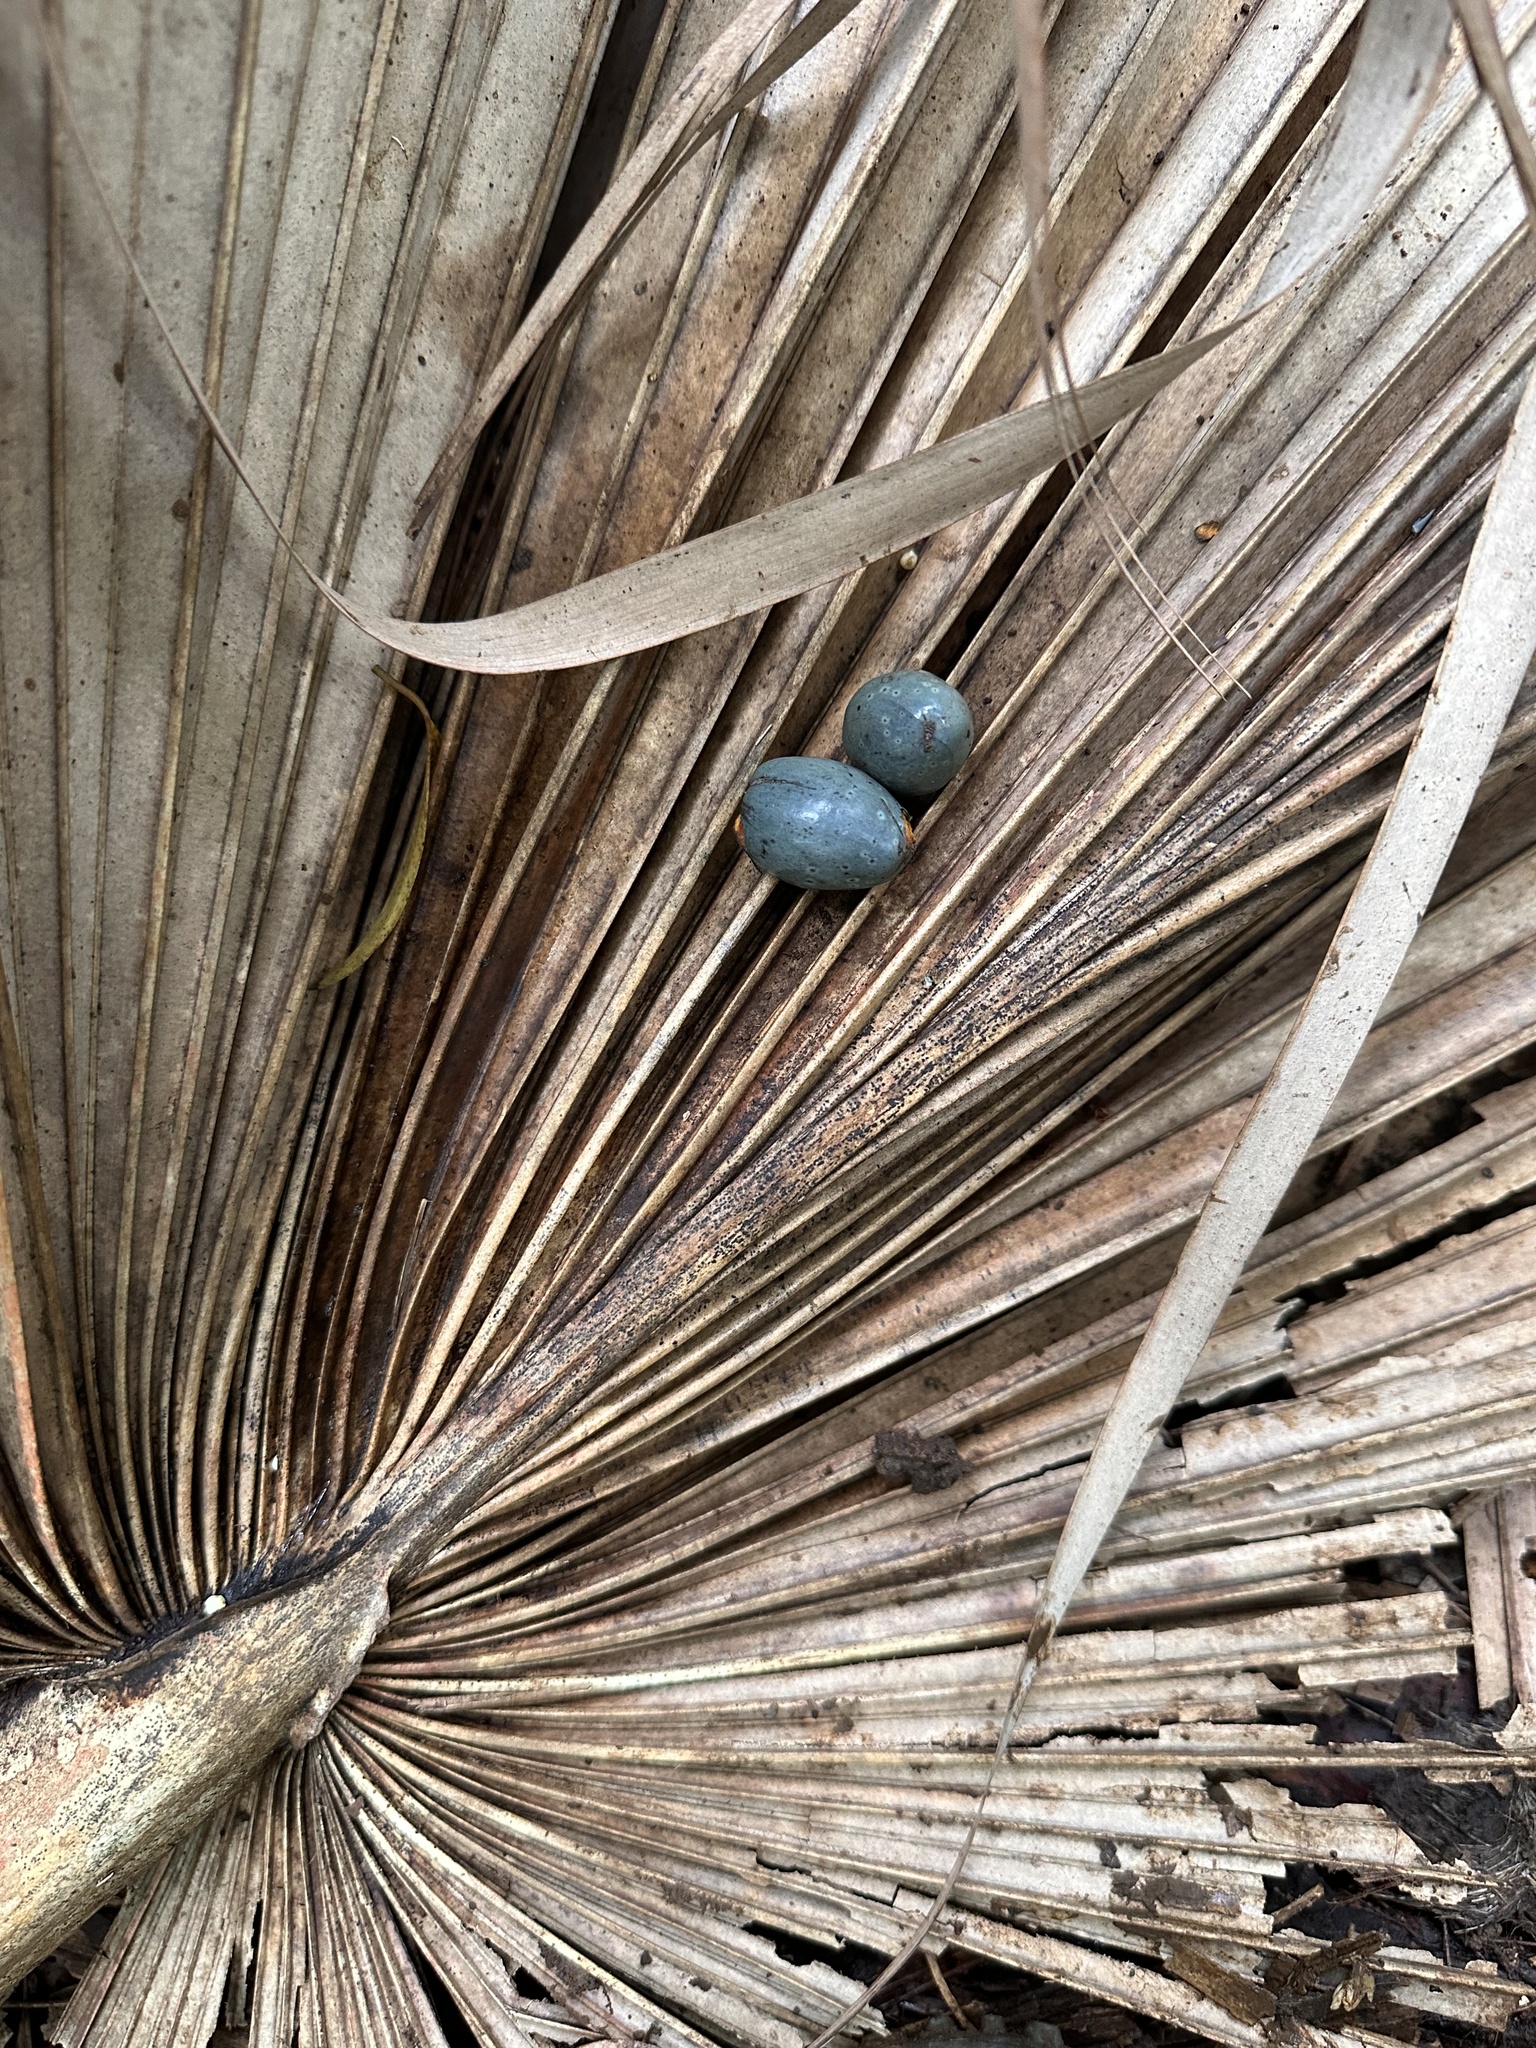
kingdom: Plantae
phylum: Tracheophyta
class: Liliopsida
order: Arecales
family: Arecaceae
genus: Livistona
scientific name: Livistona chinensis
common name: Fountain palm
